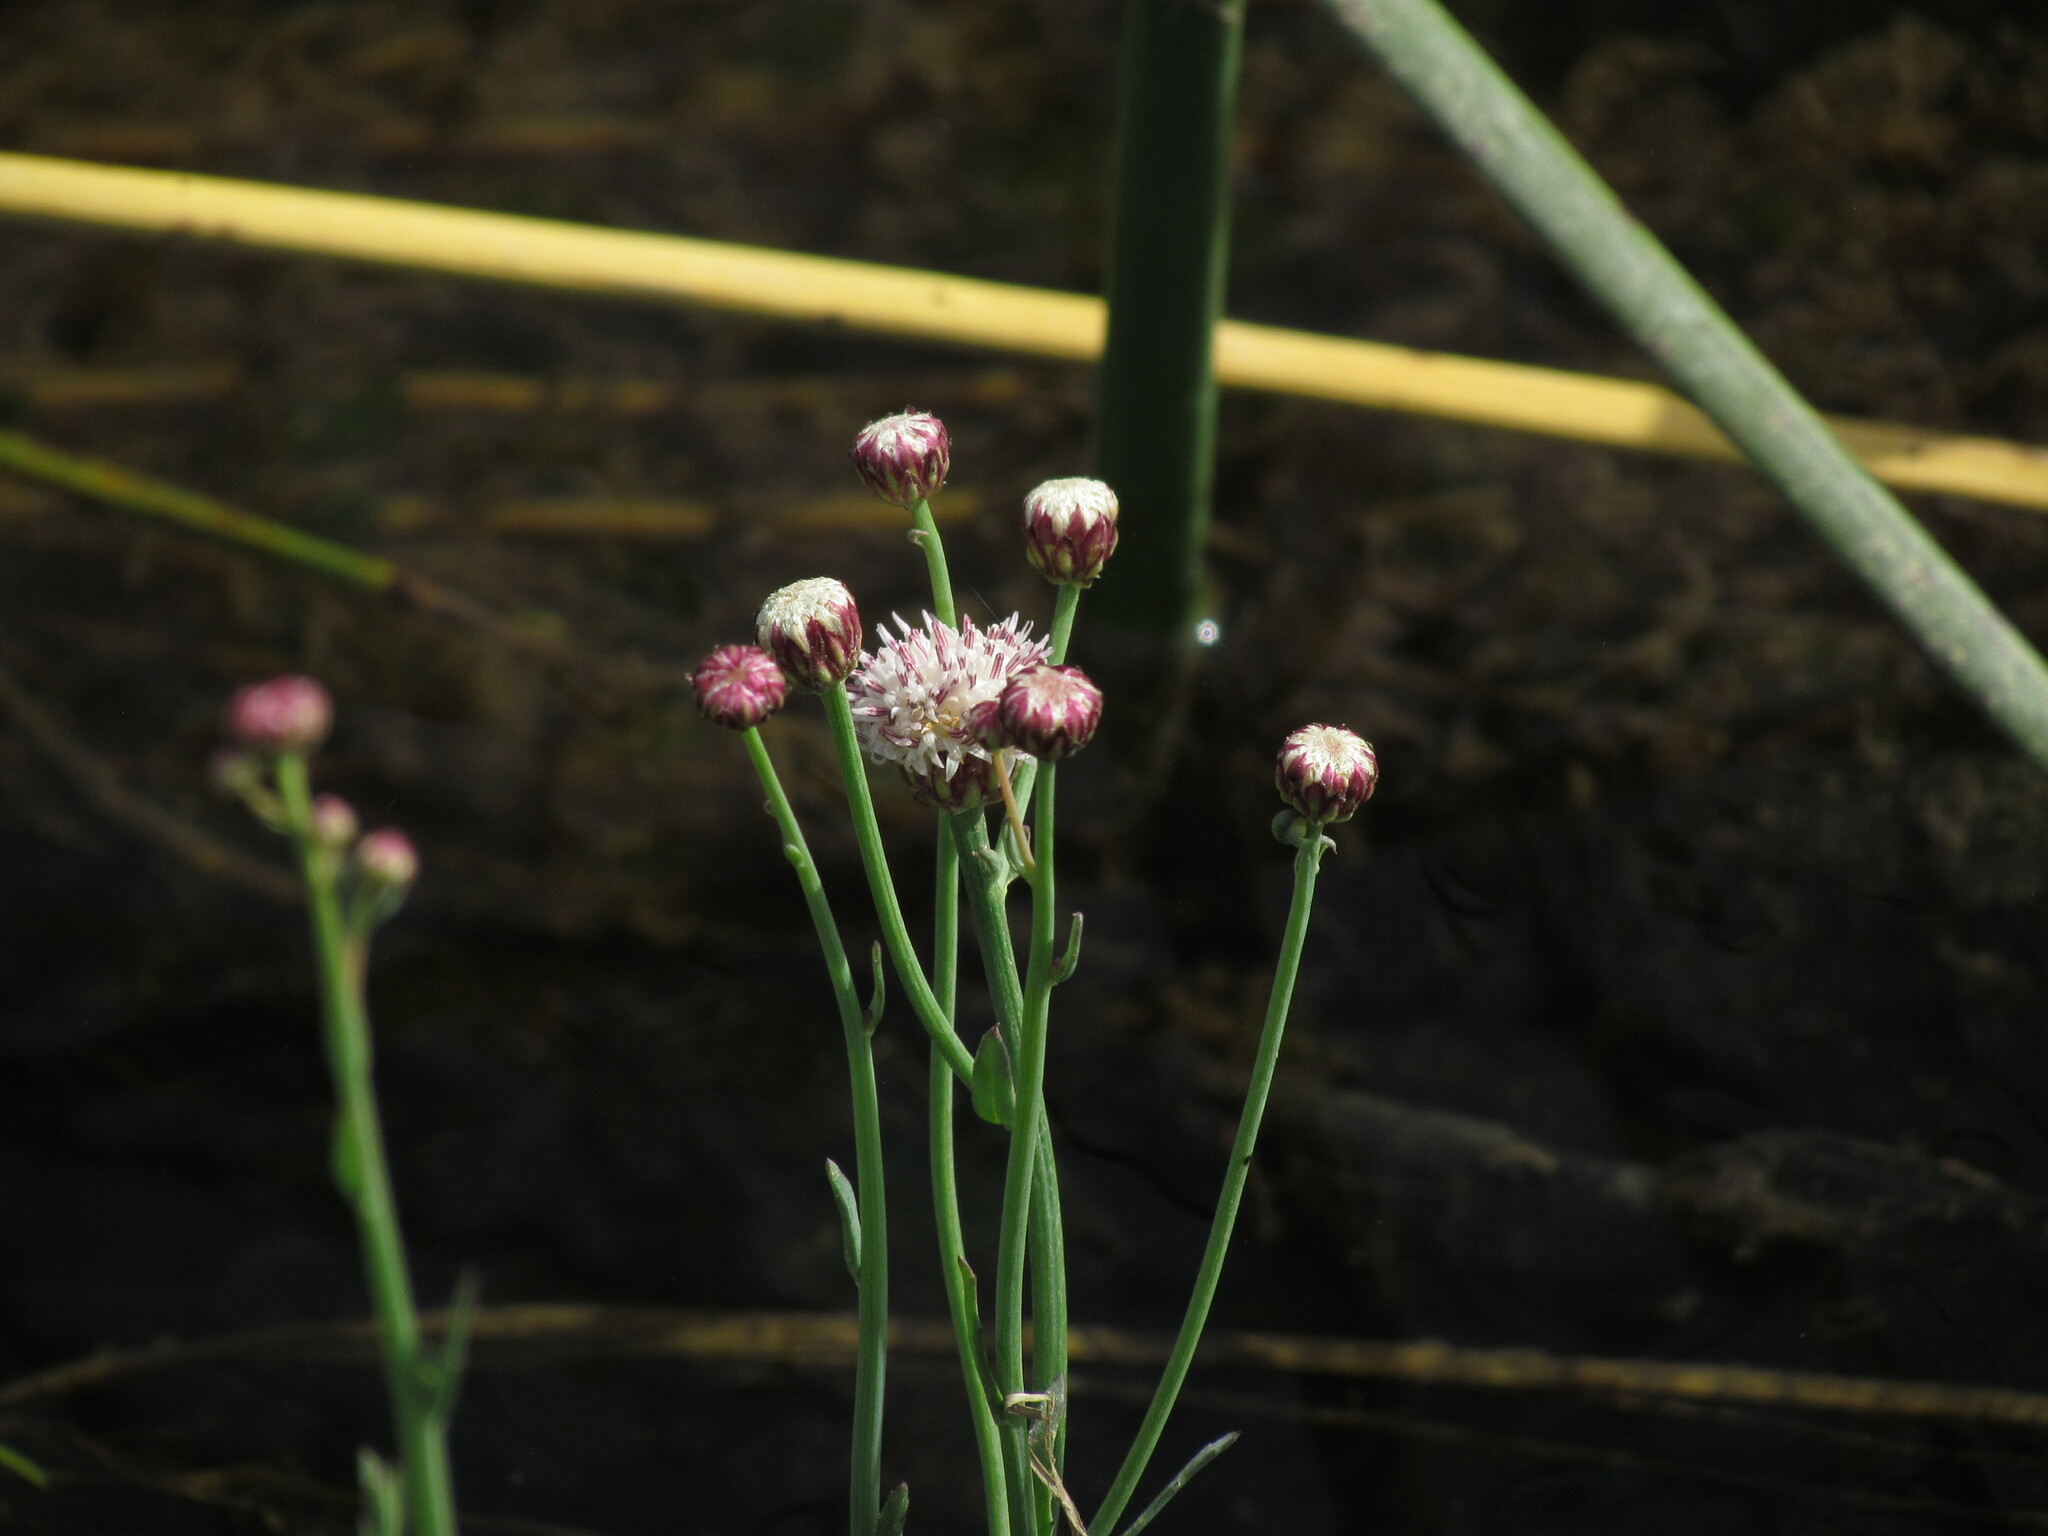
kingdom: Plantae
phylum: Tracheophyta
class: Magnoliopsida
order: Asterales
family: Asteraceae
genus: Baccharis
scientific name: Baccharis juncea
